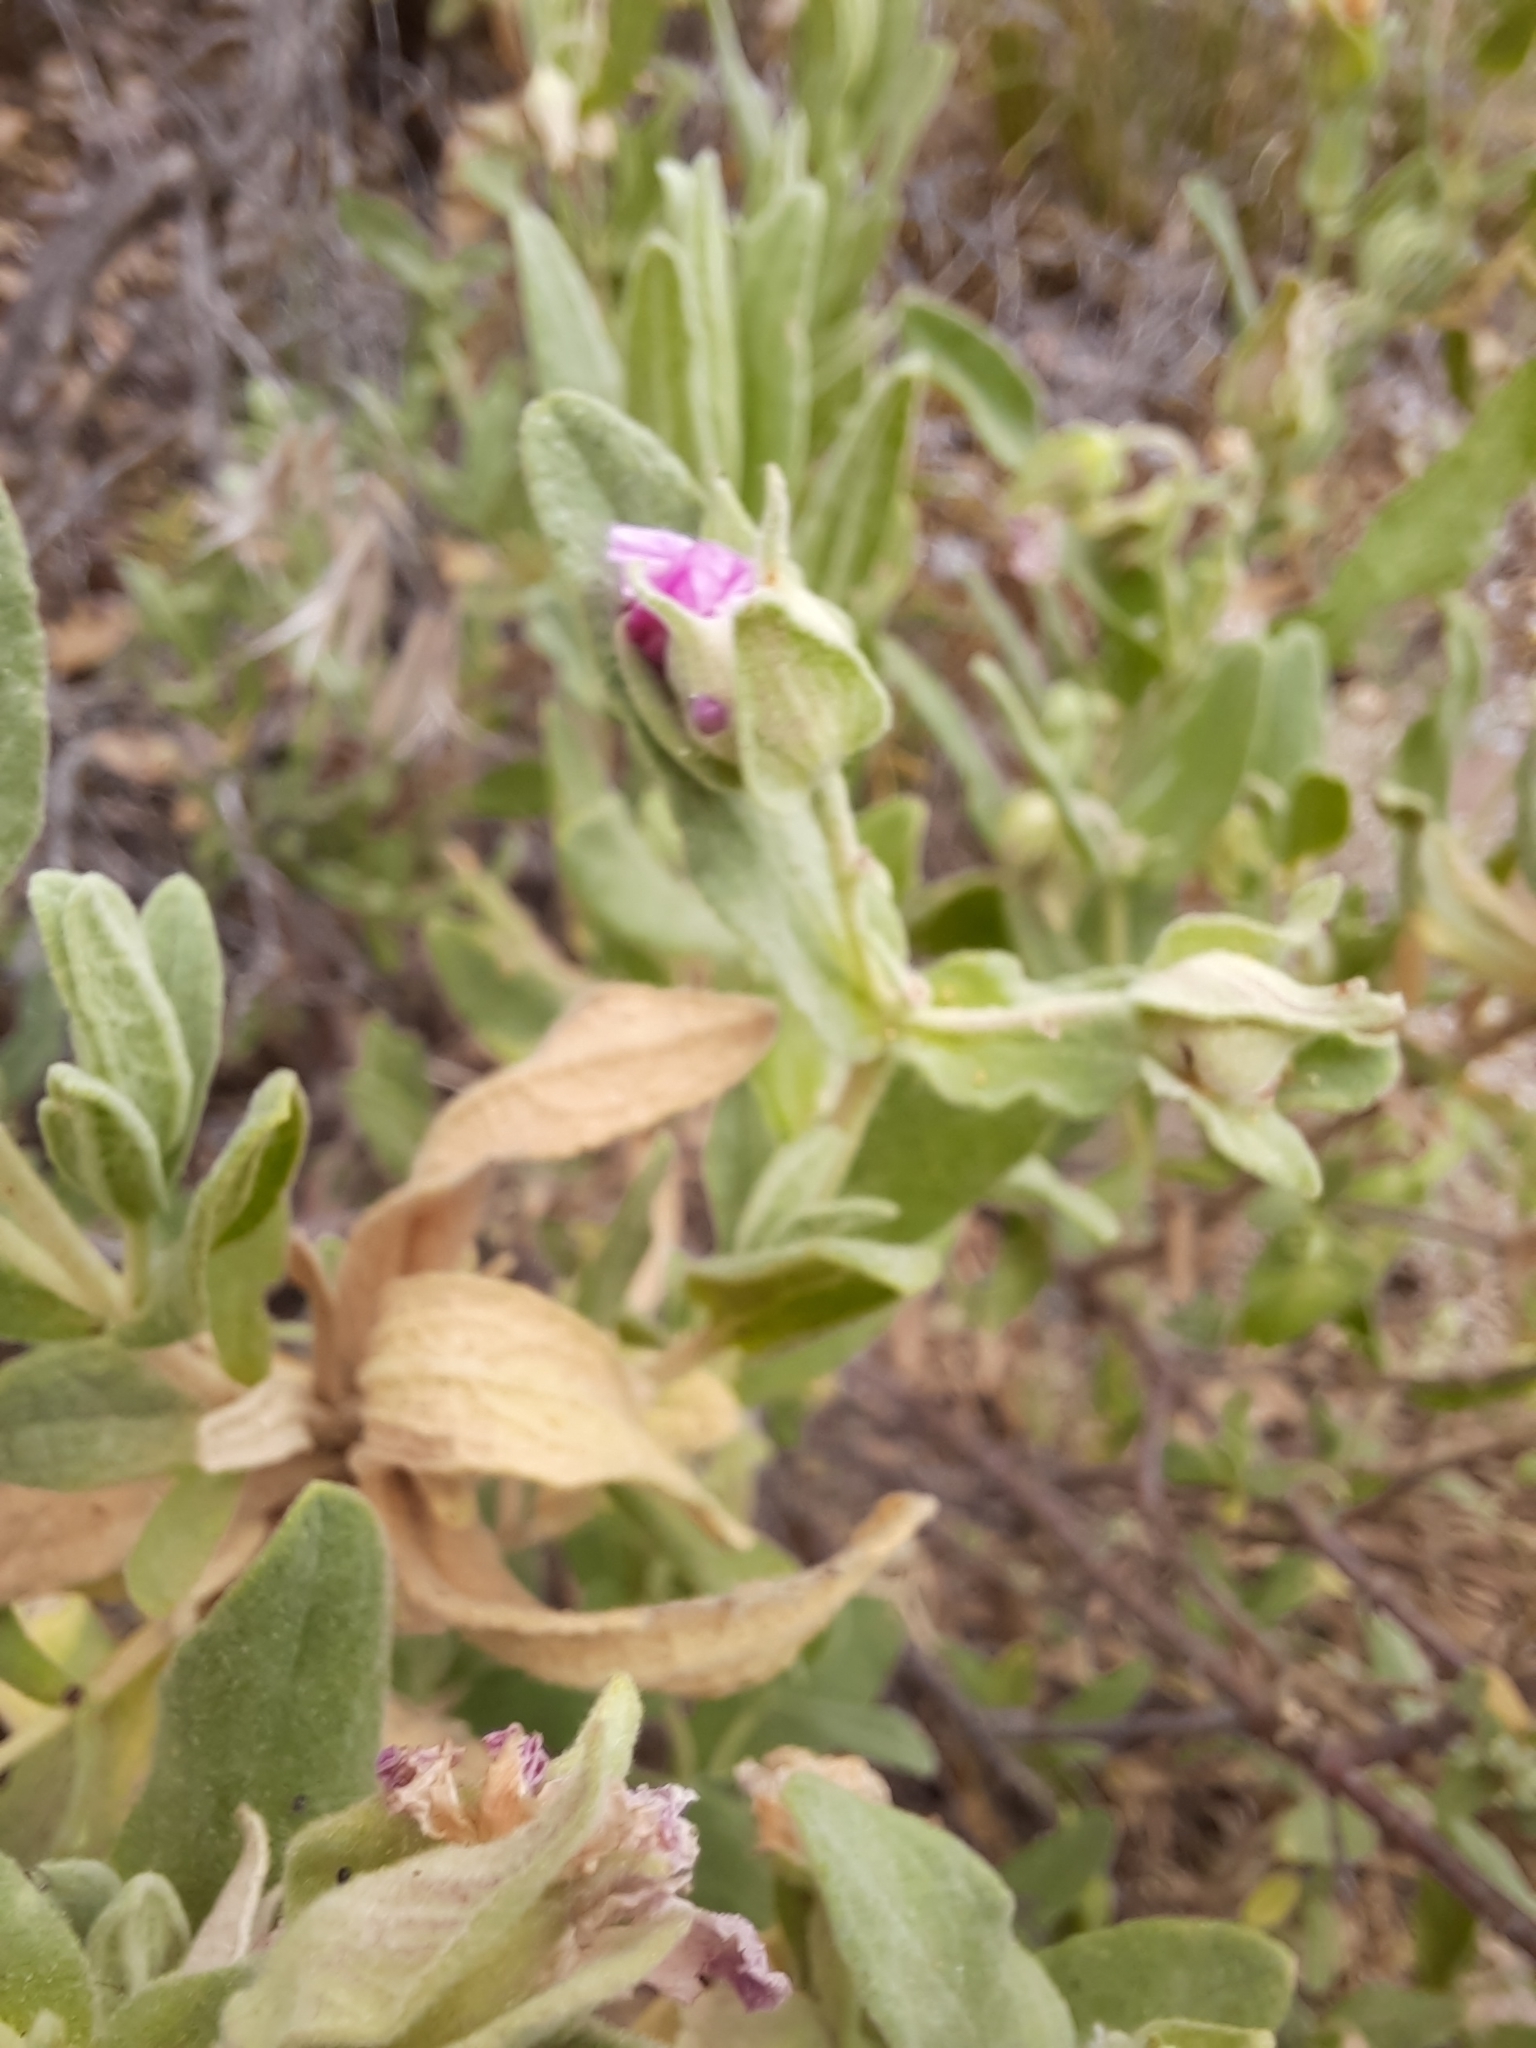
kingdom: Plantae
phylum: Tracheophyta
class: Magnoliopsida
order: Malvales
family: Cistaceae
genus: Cistus
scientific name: Cistus albidus
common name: White-leaf rock-rose
